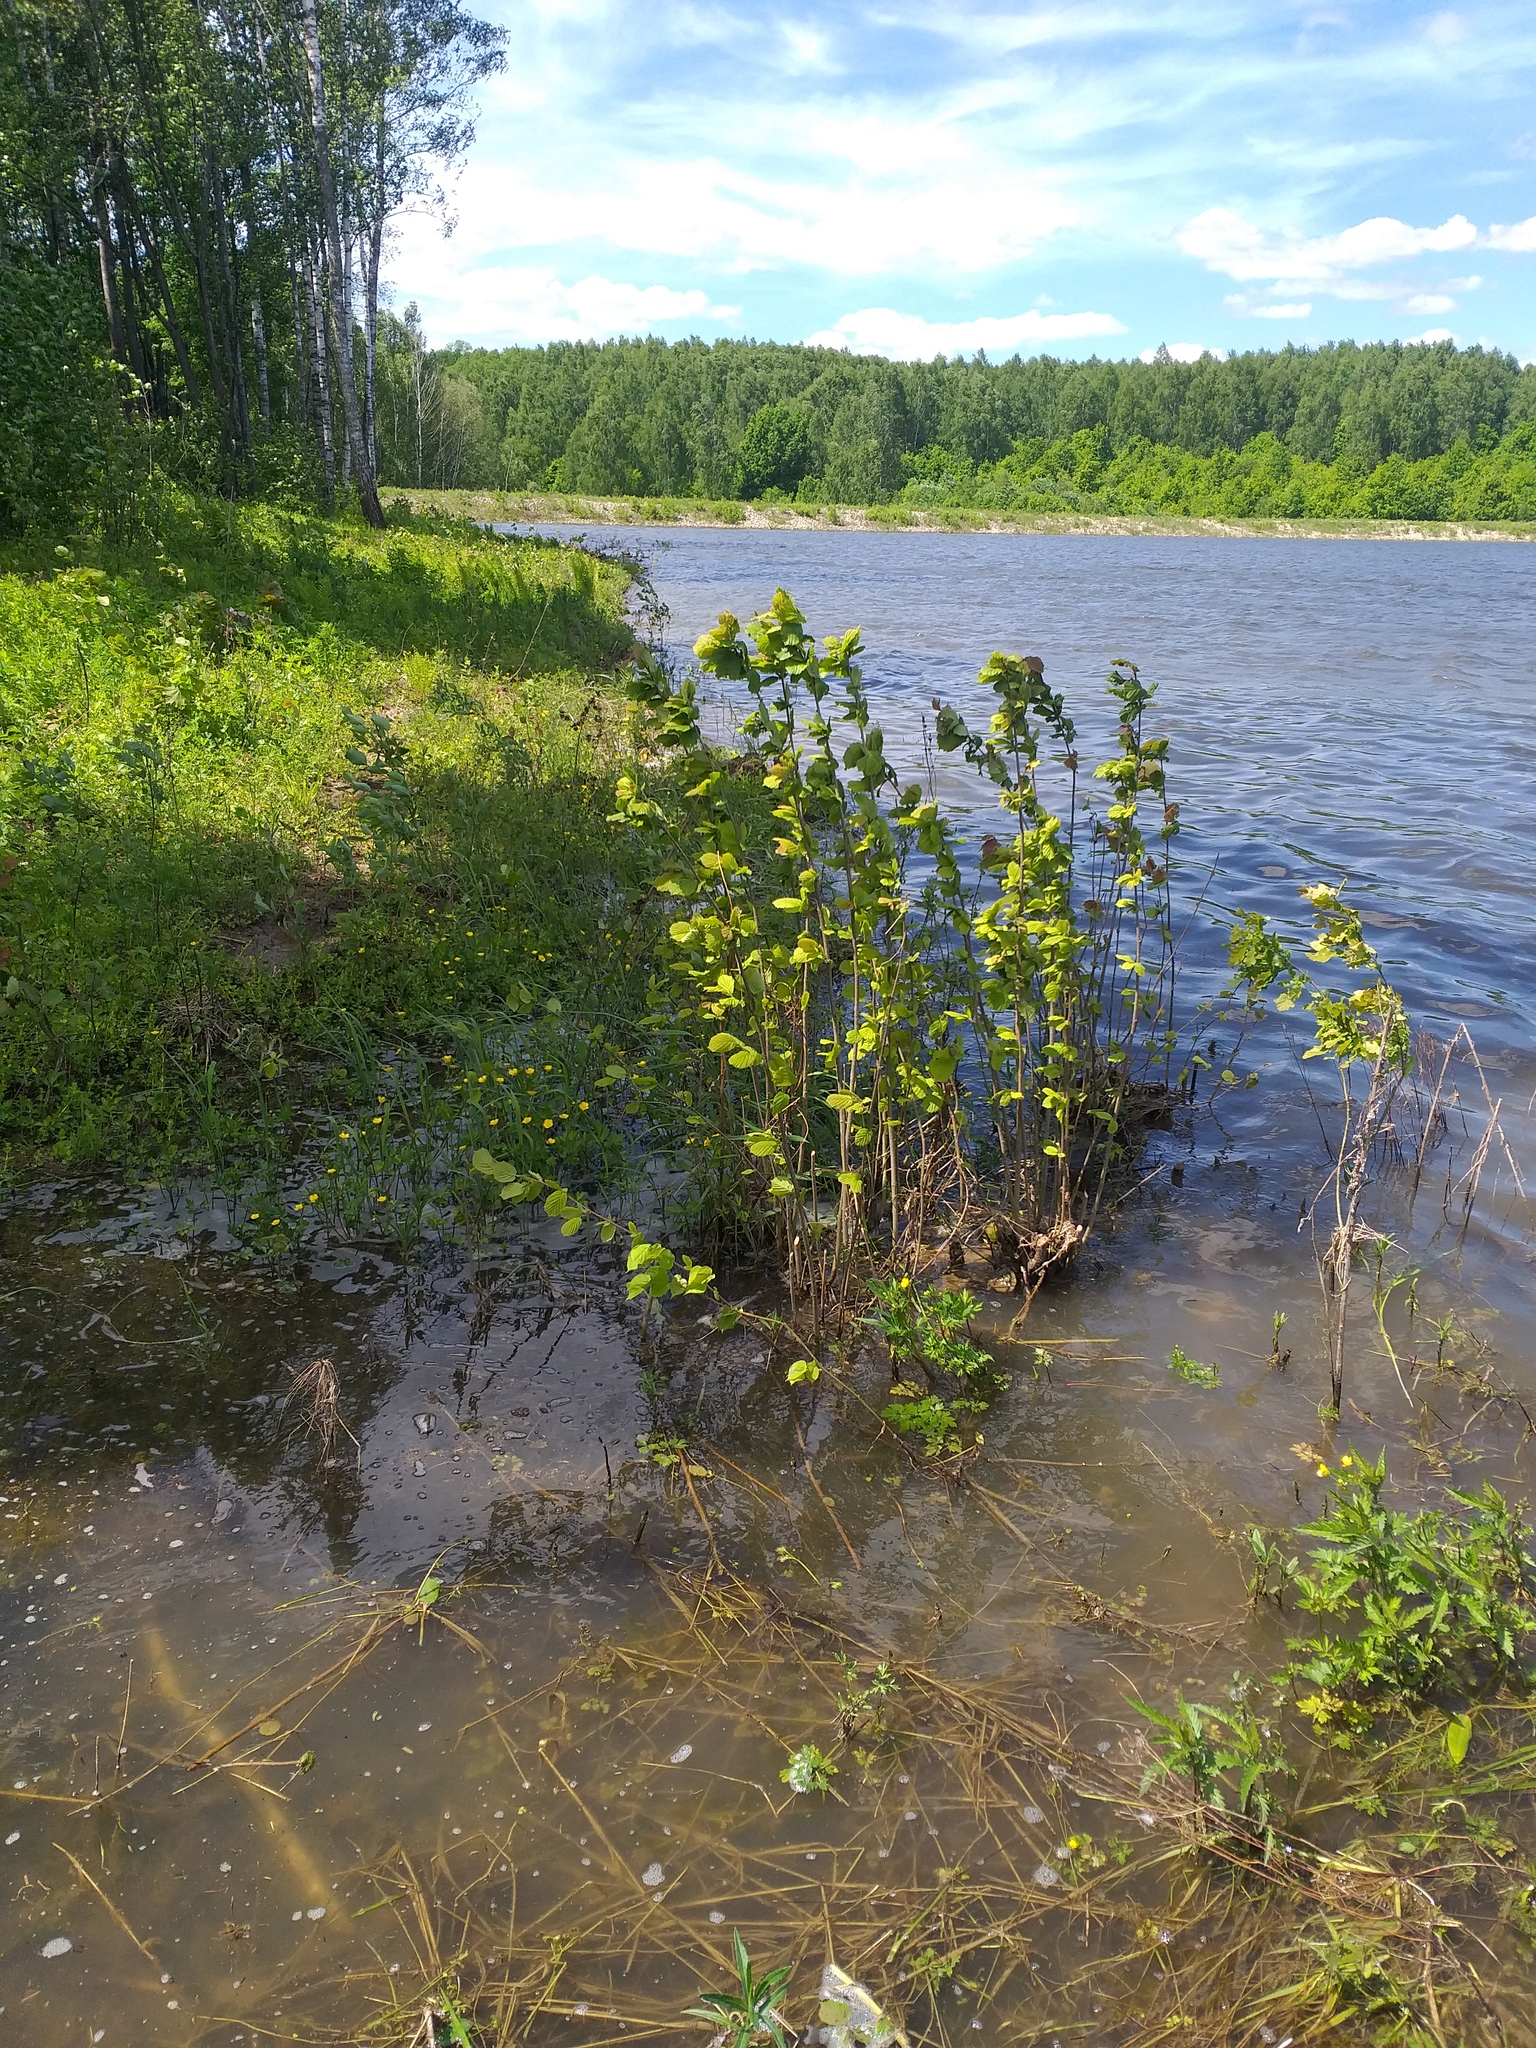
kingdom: Plantae
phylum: Tracheophyta
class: Magnoliopsida
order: Fagales
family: Betulaceae
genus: Corylus
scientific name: Corylus avellana
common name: European hazel
